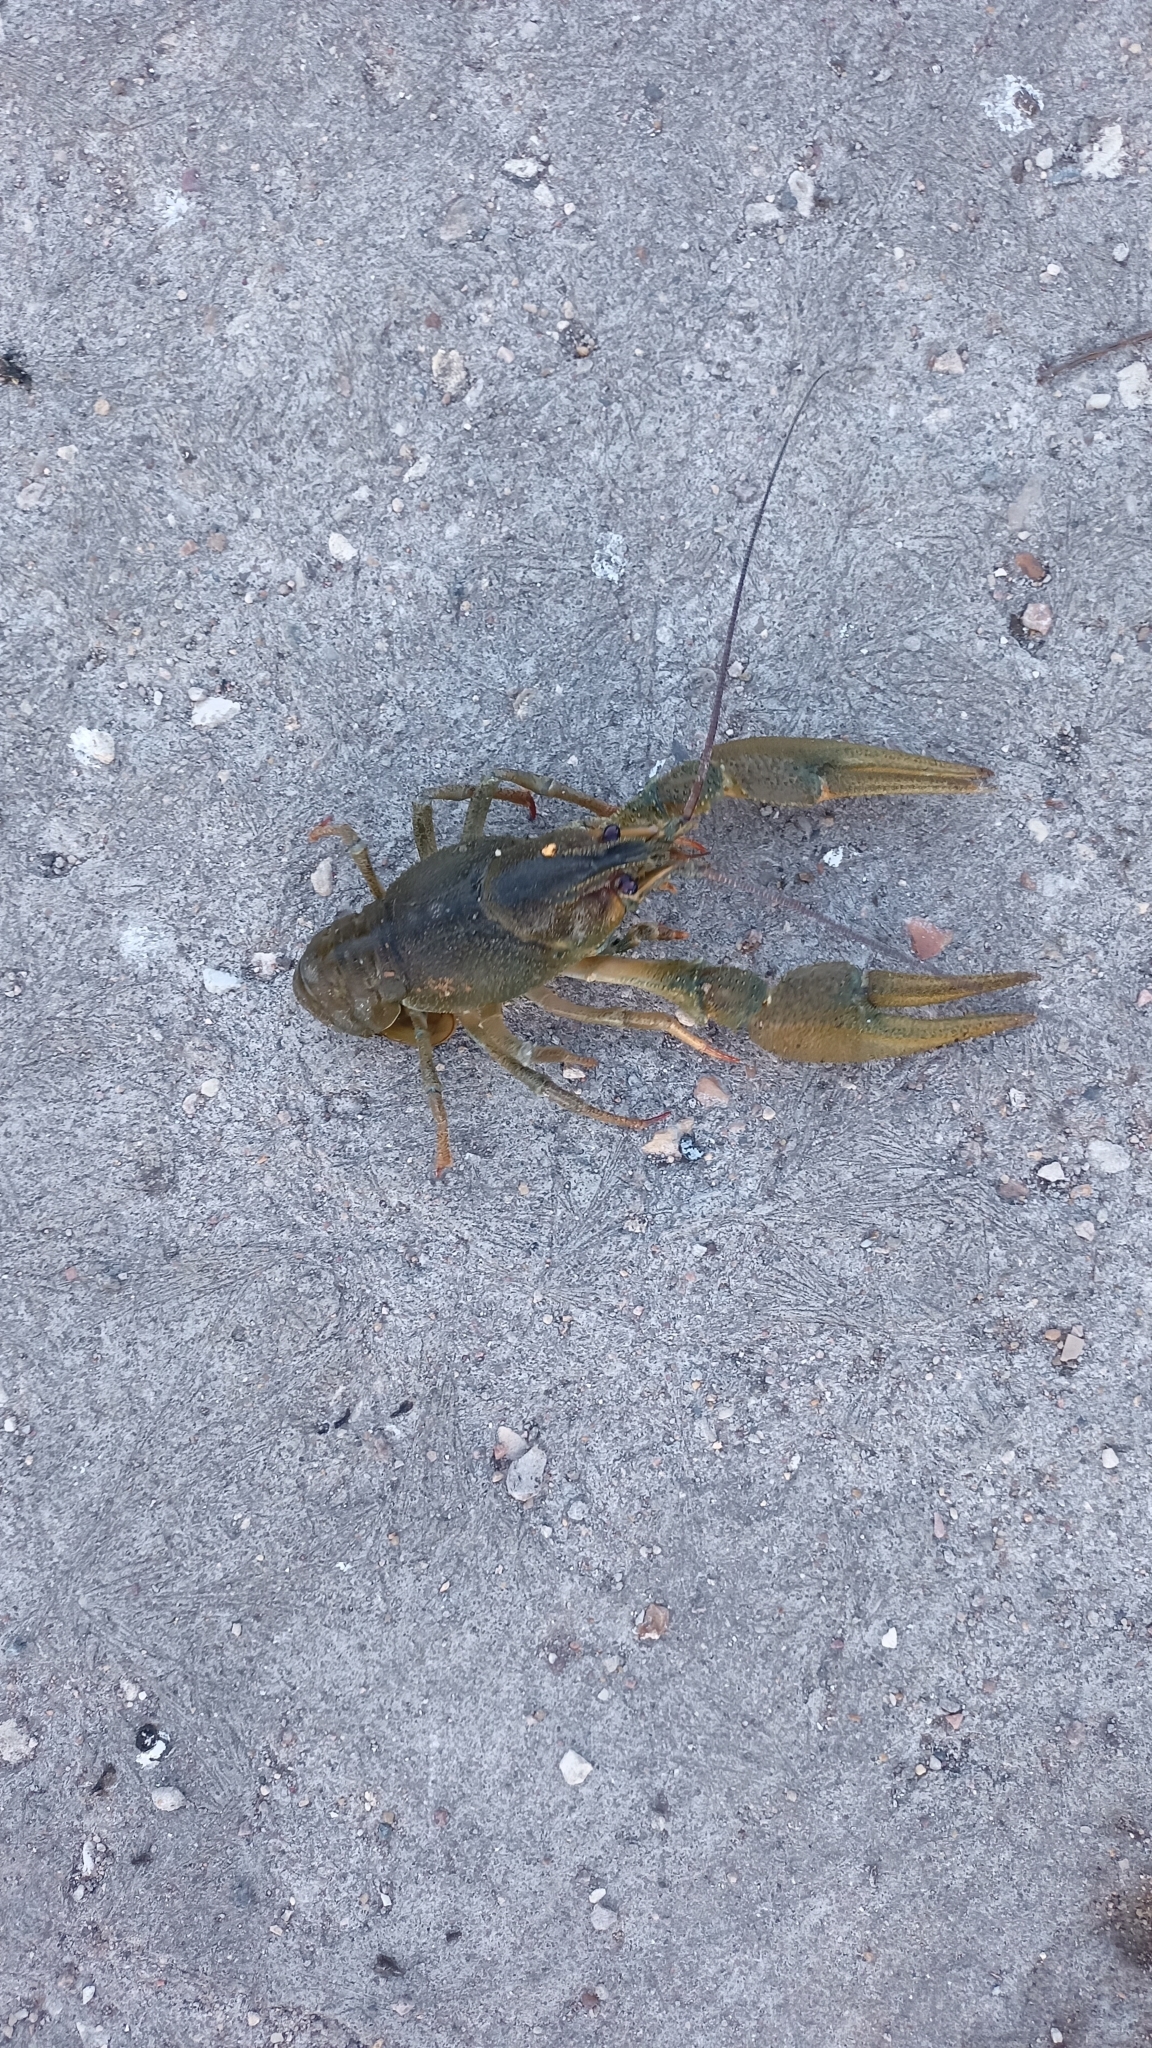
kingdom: Animalia
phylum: Arthropoda
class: Malacostraca
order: Decapoda
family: Astacidae
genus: Pontastacus
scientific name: Pontastacus leptodactylus
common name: Danube crayfish
